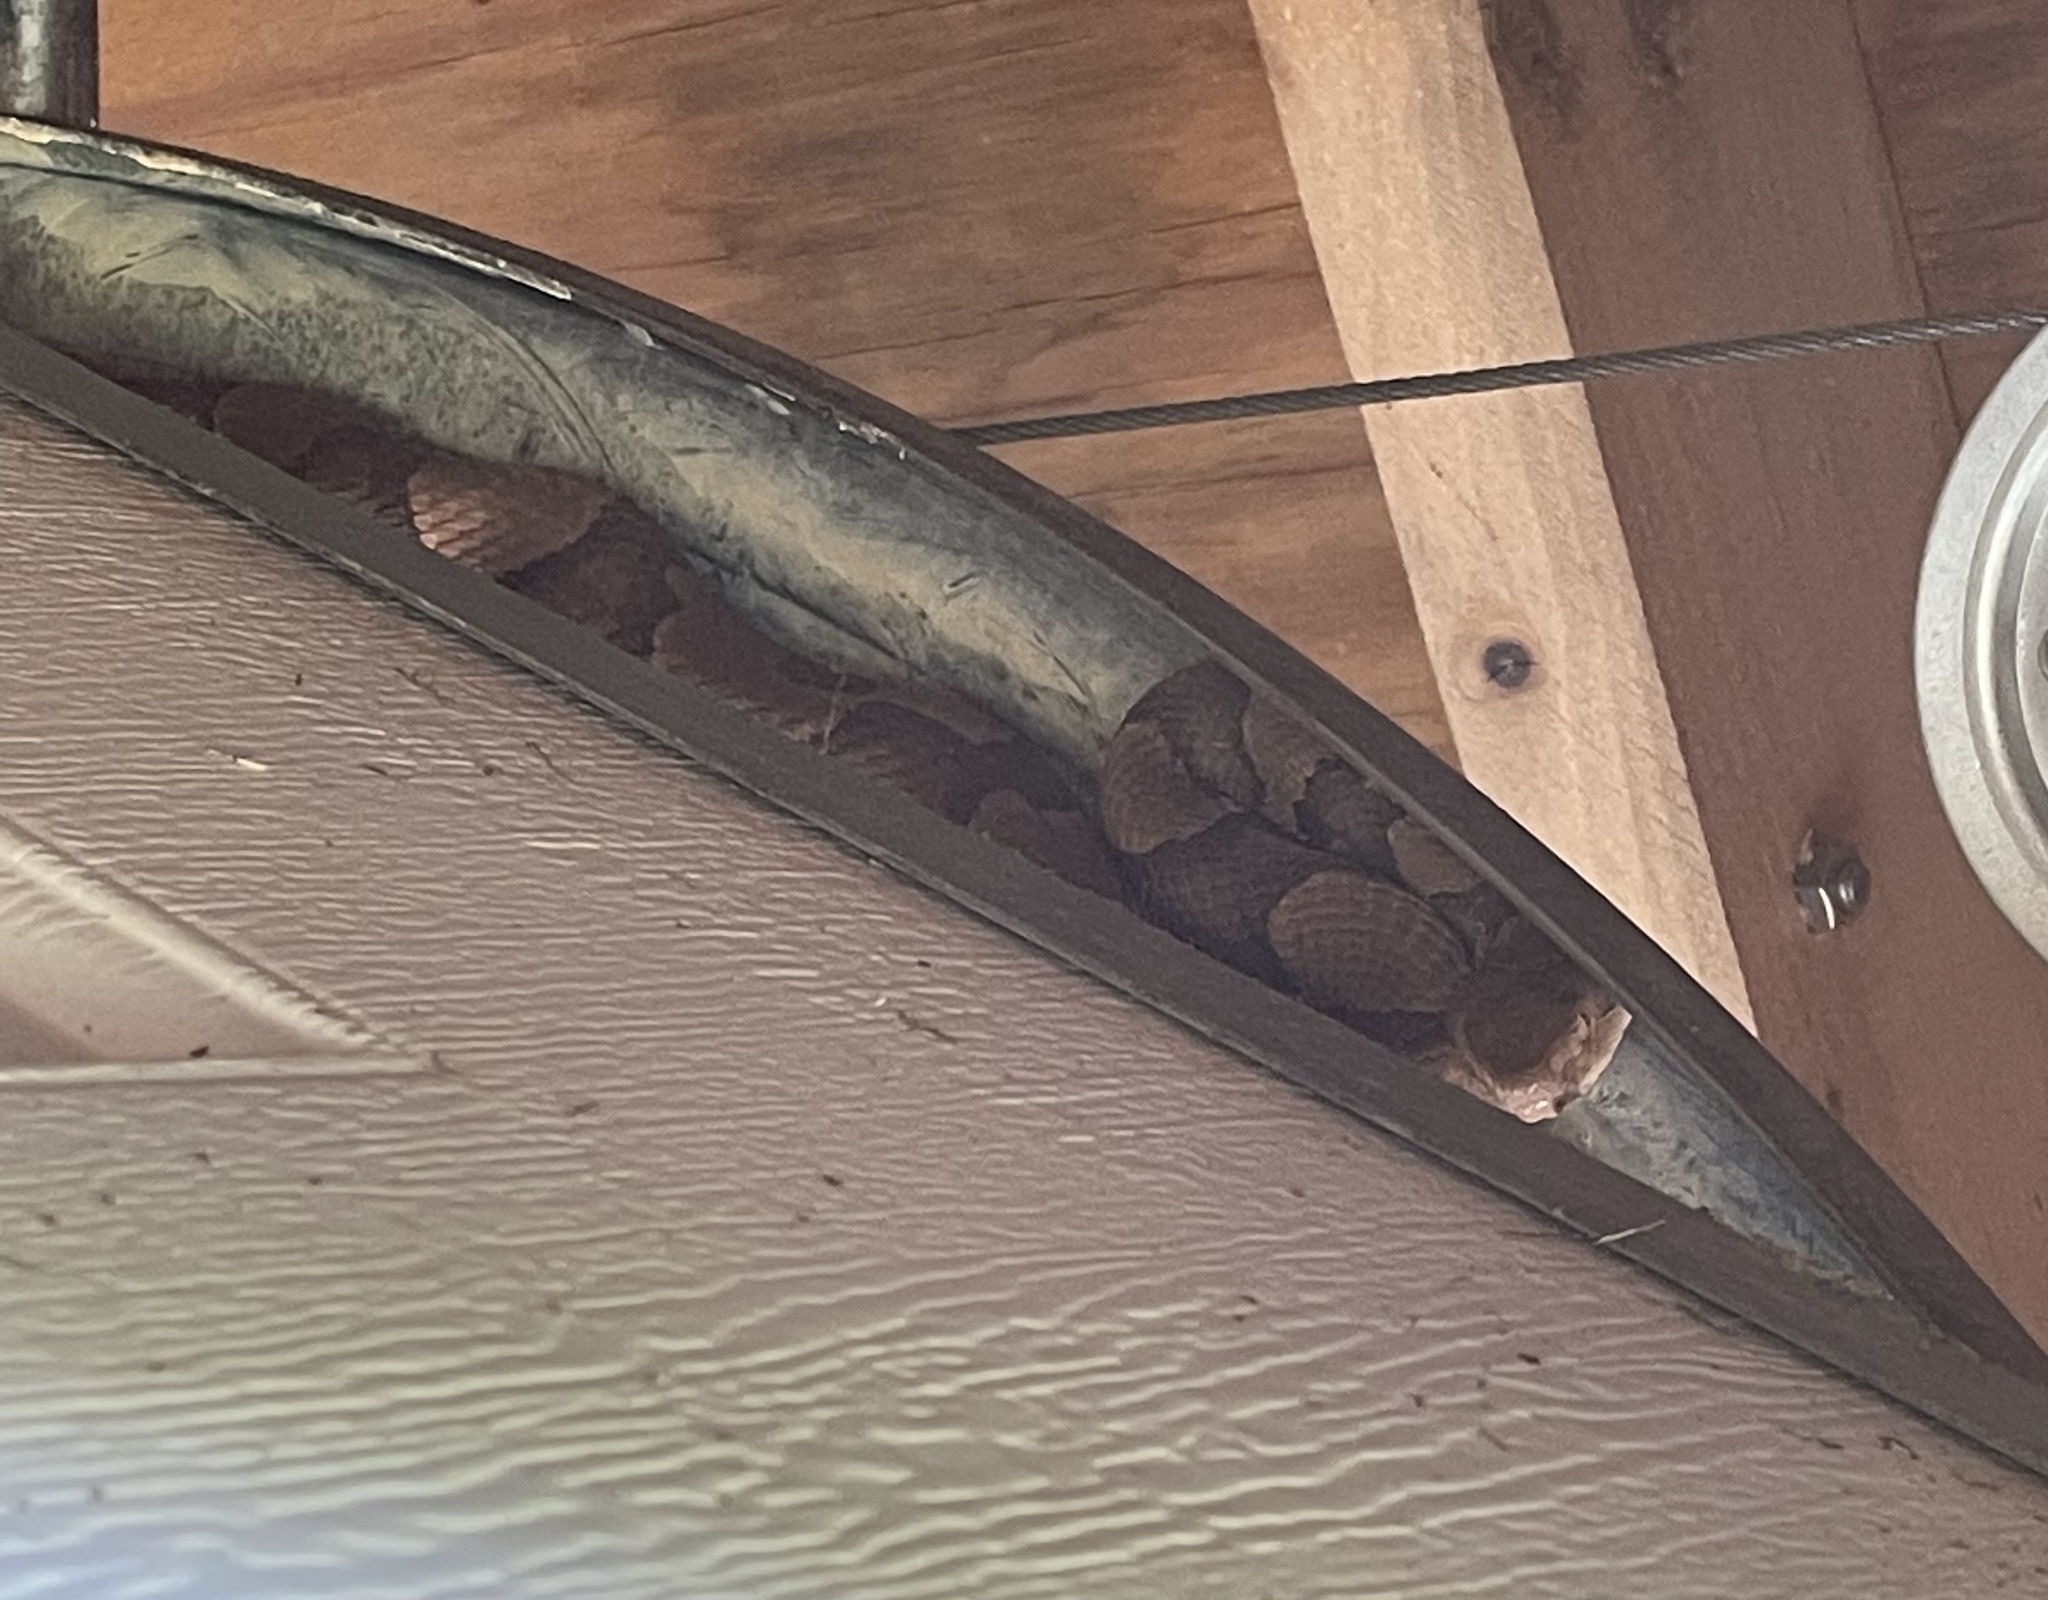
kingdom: Animalia
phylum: Chordata
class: Squamata
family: Viperidae
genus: Agkistrodon
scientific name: Agkistrodon contortrix
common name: Northern copperhead
